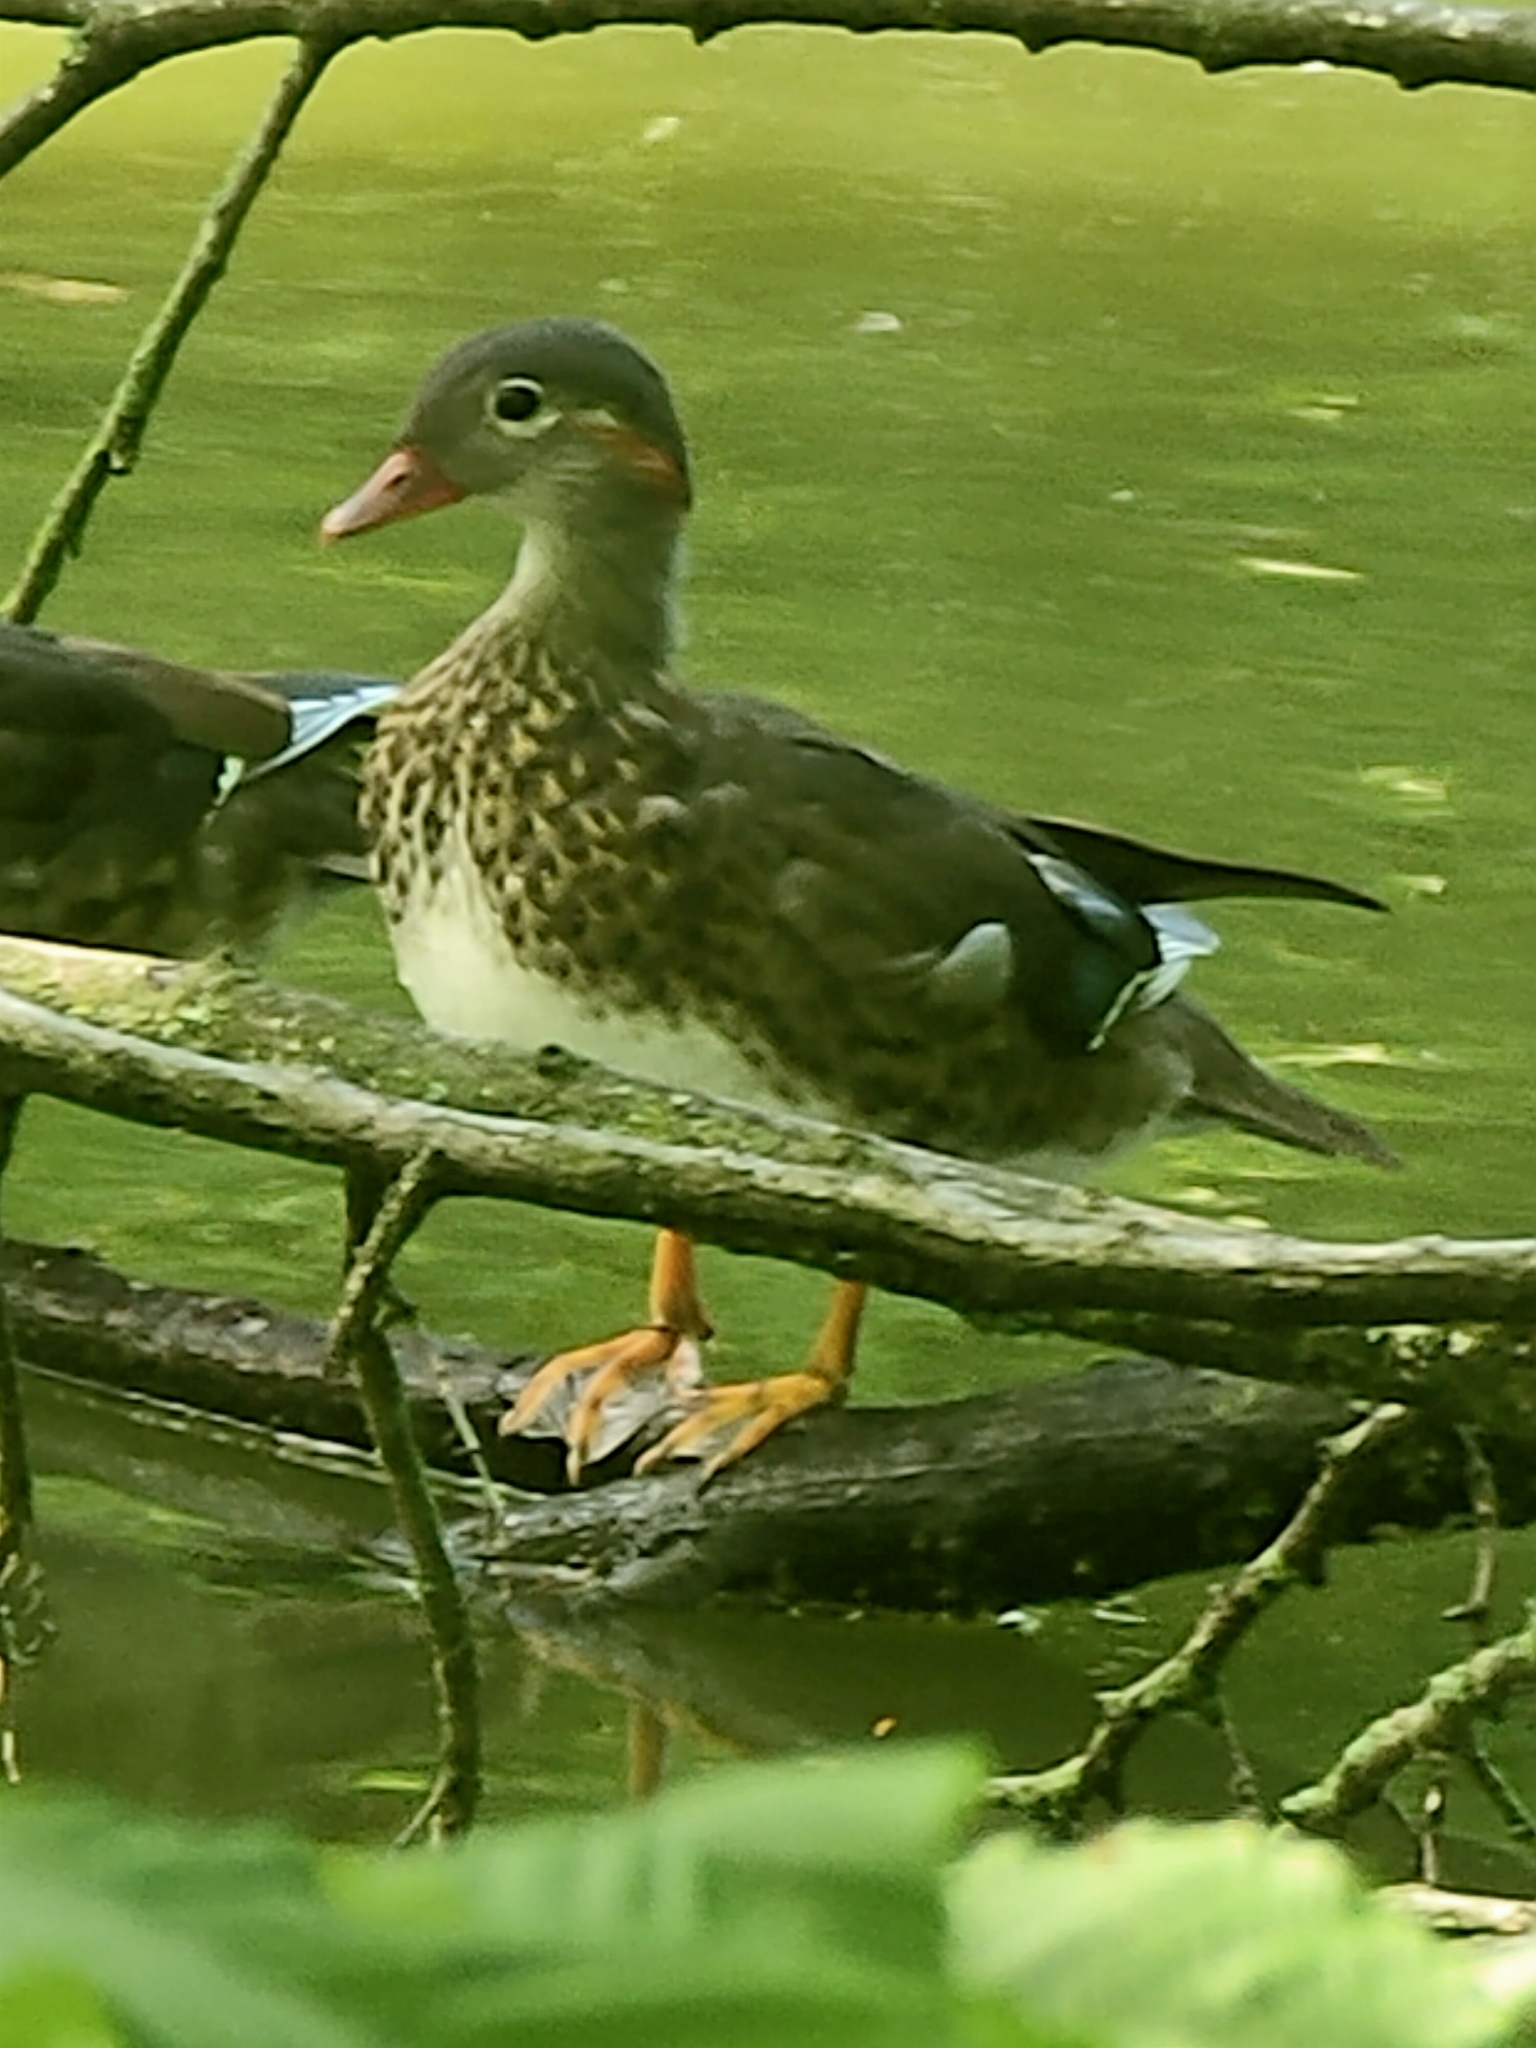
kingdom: Animalia
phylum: Chordata
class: Aves
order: Anseriformes
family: Anatidae
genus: Aix
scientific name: Aix galericulata
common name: Mandarin duck
